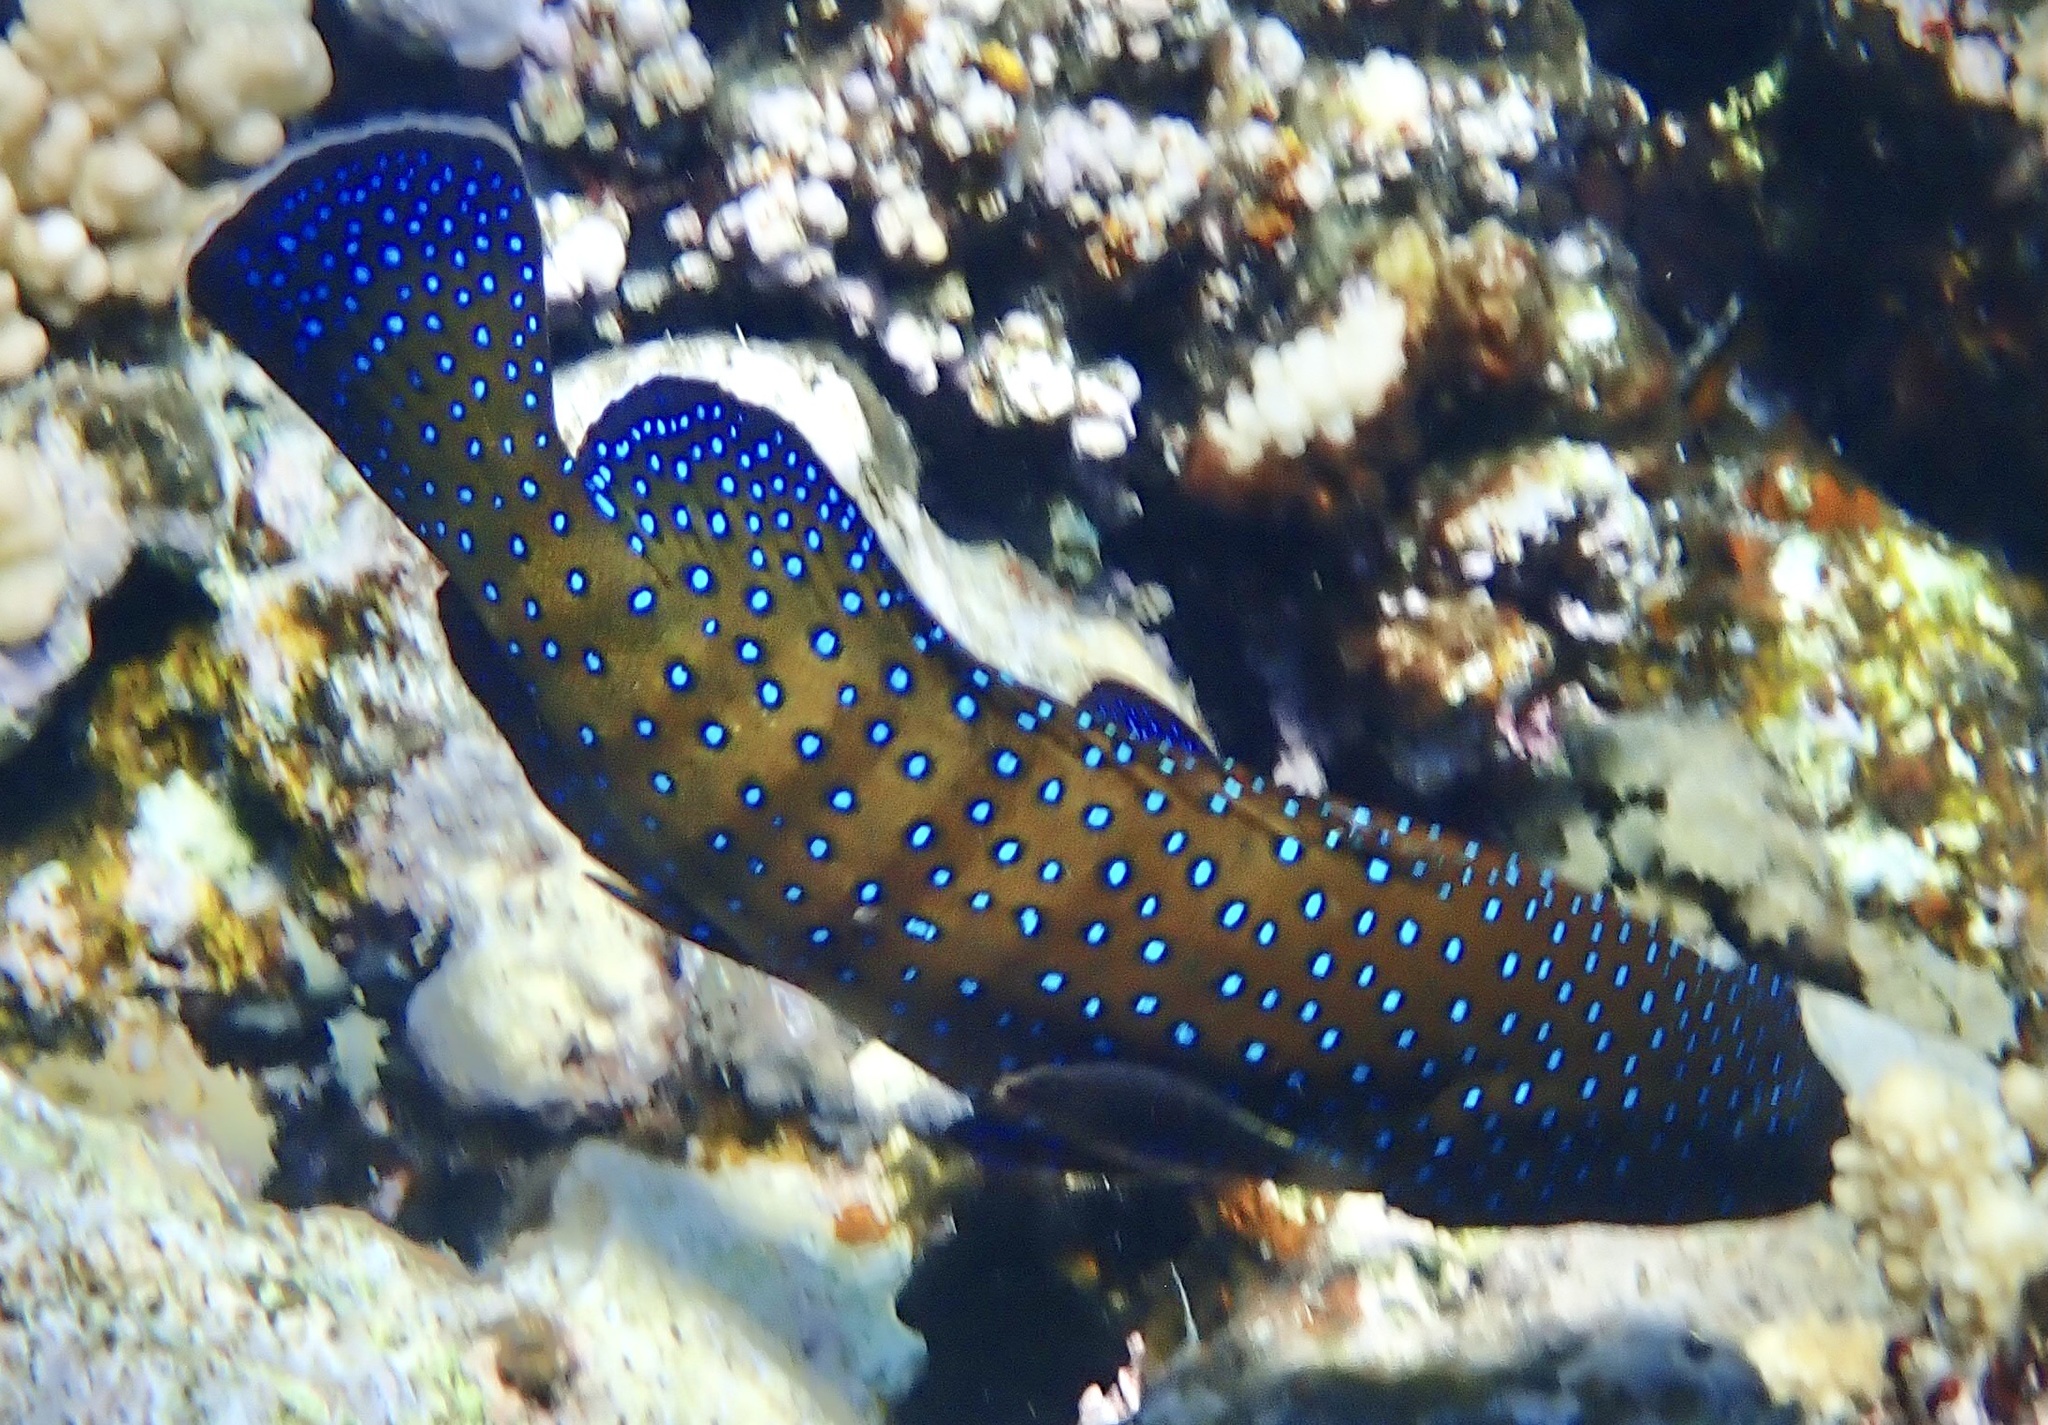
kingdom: Animalia
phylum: Chordata
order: Perciformes
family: Serranidae
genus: Cephalopholis
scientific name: Cephalopholis argus
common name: Peacock grouper
